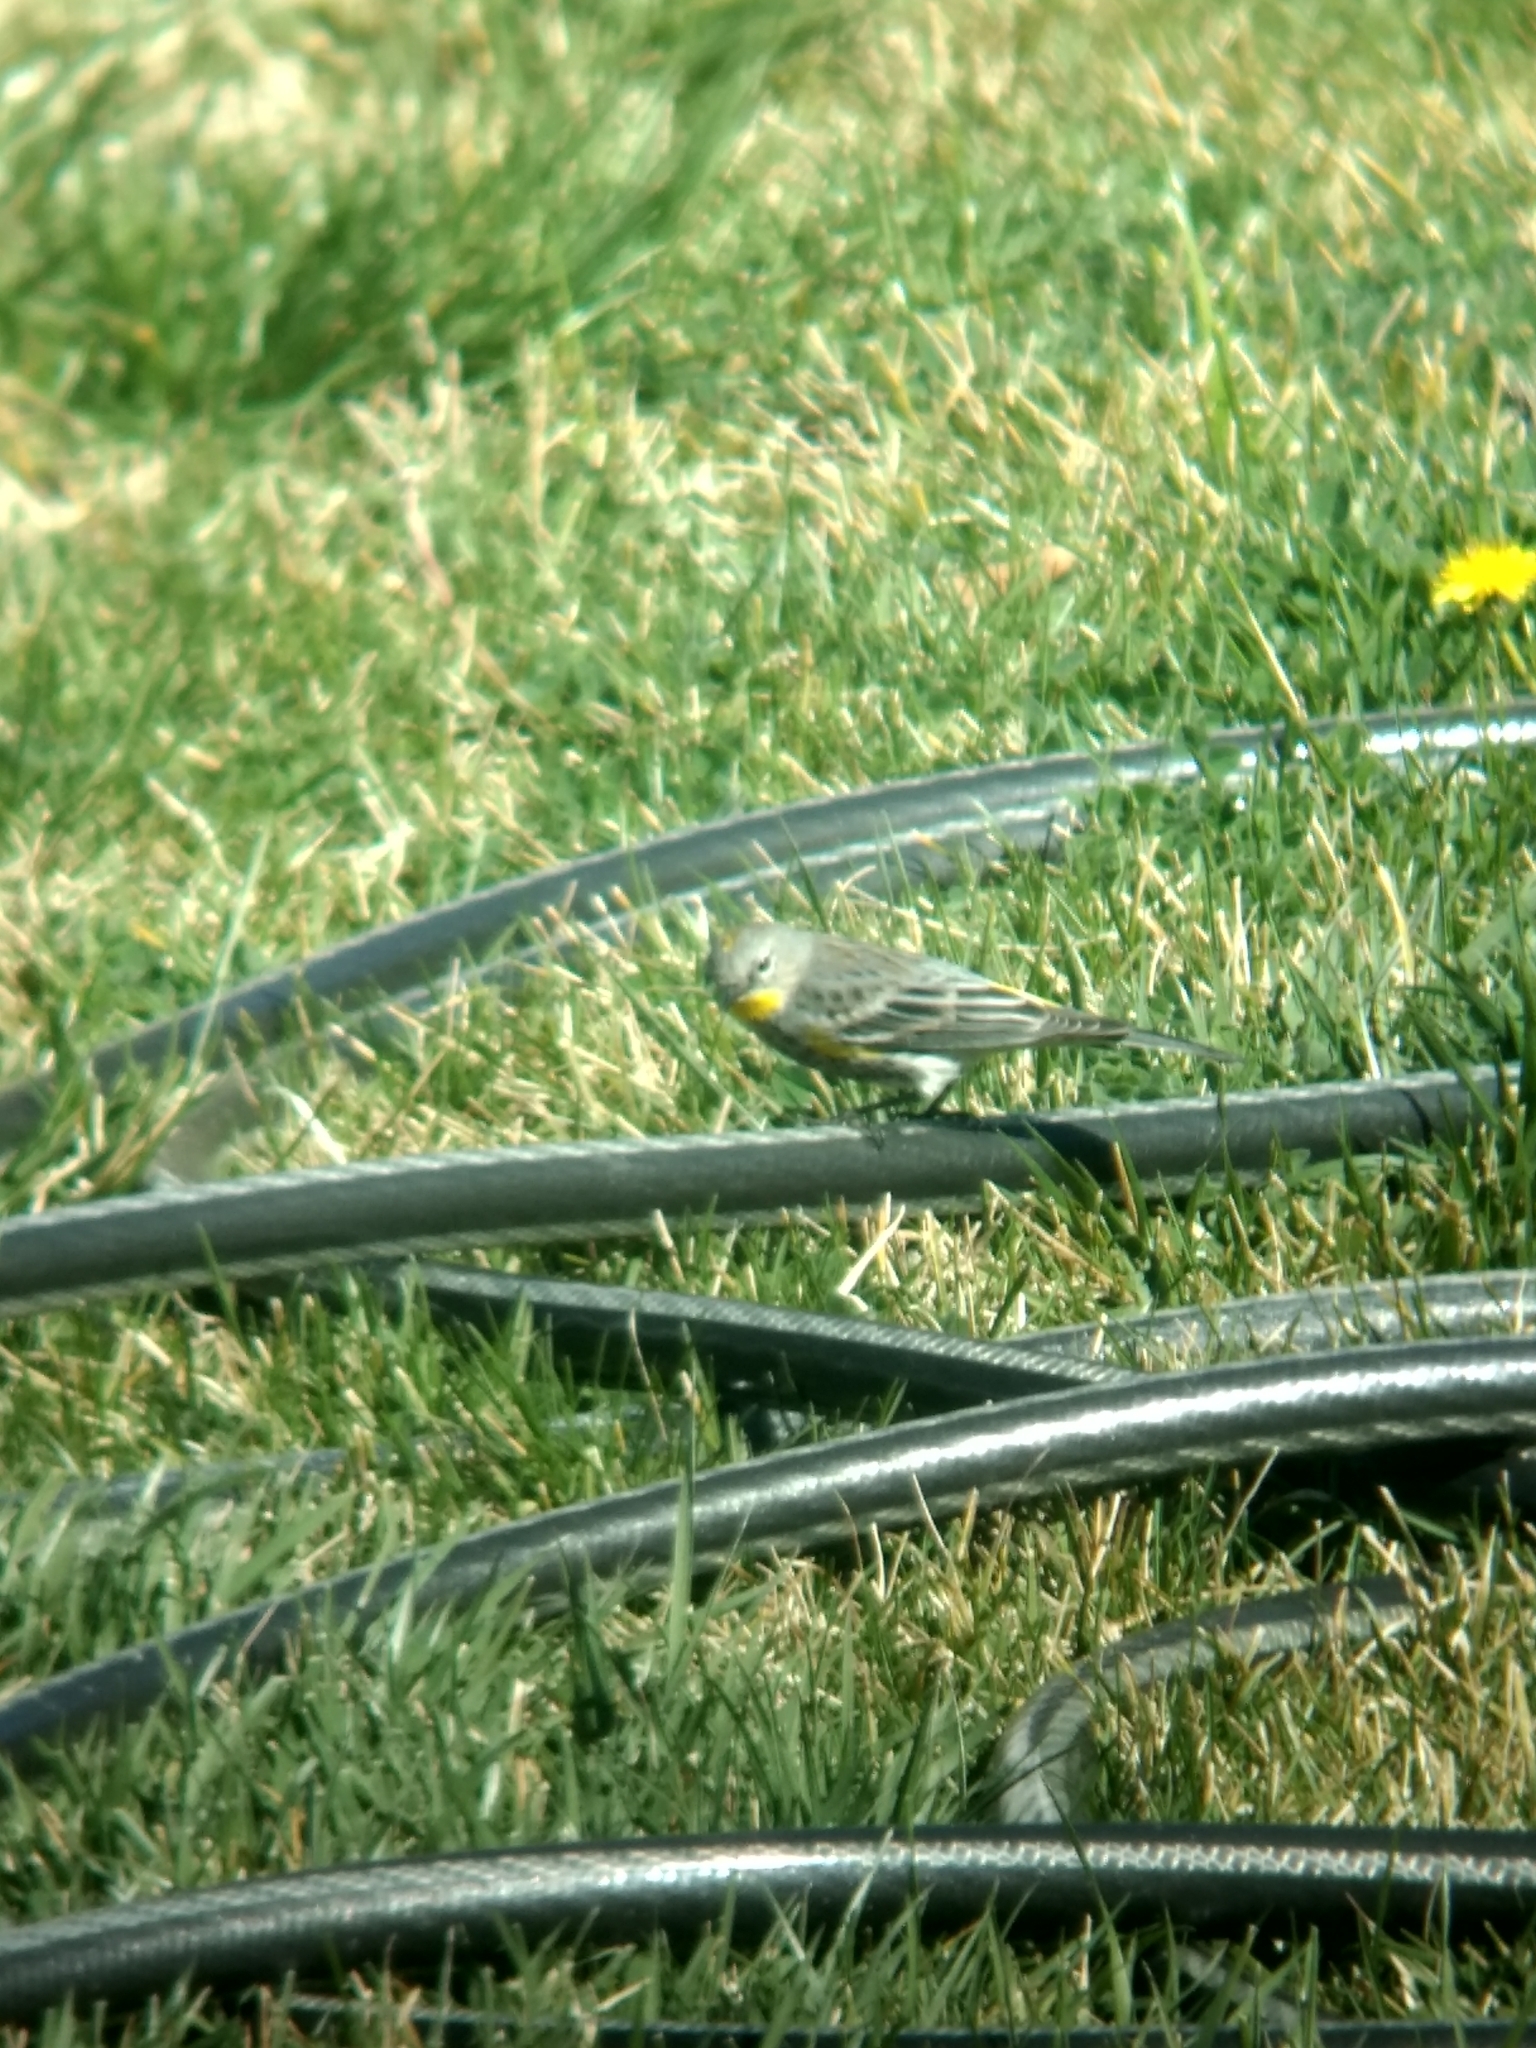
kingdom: Animalia
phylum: Chordata
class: Aves
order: Passeriformes
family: Parulidae
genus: Setophaga
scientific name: Setophaga coronata
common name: Myrtle warbler
